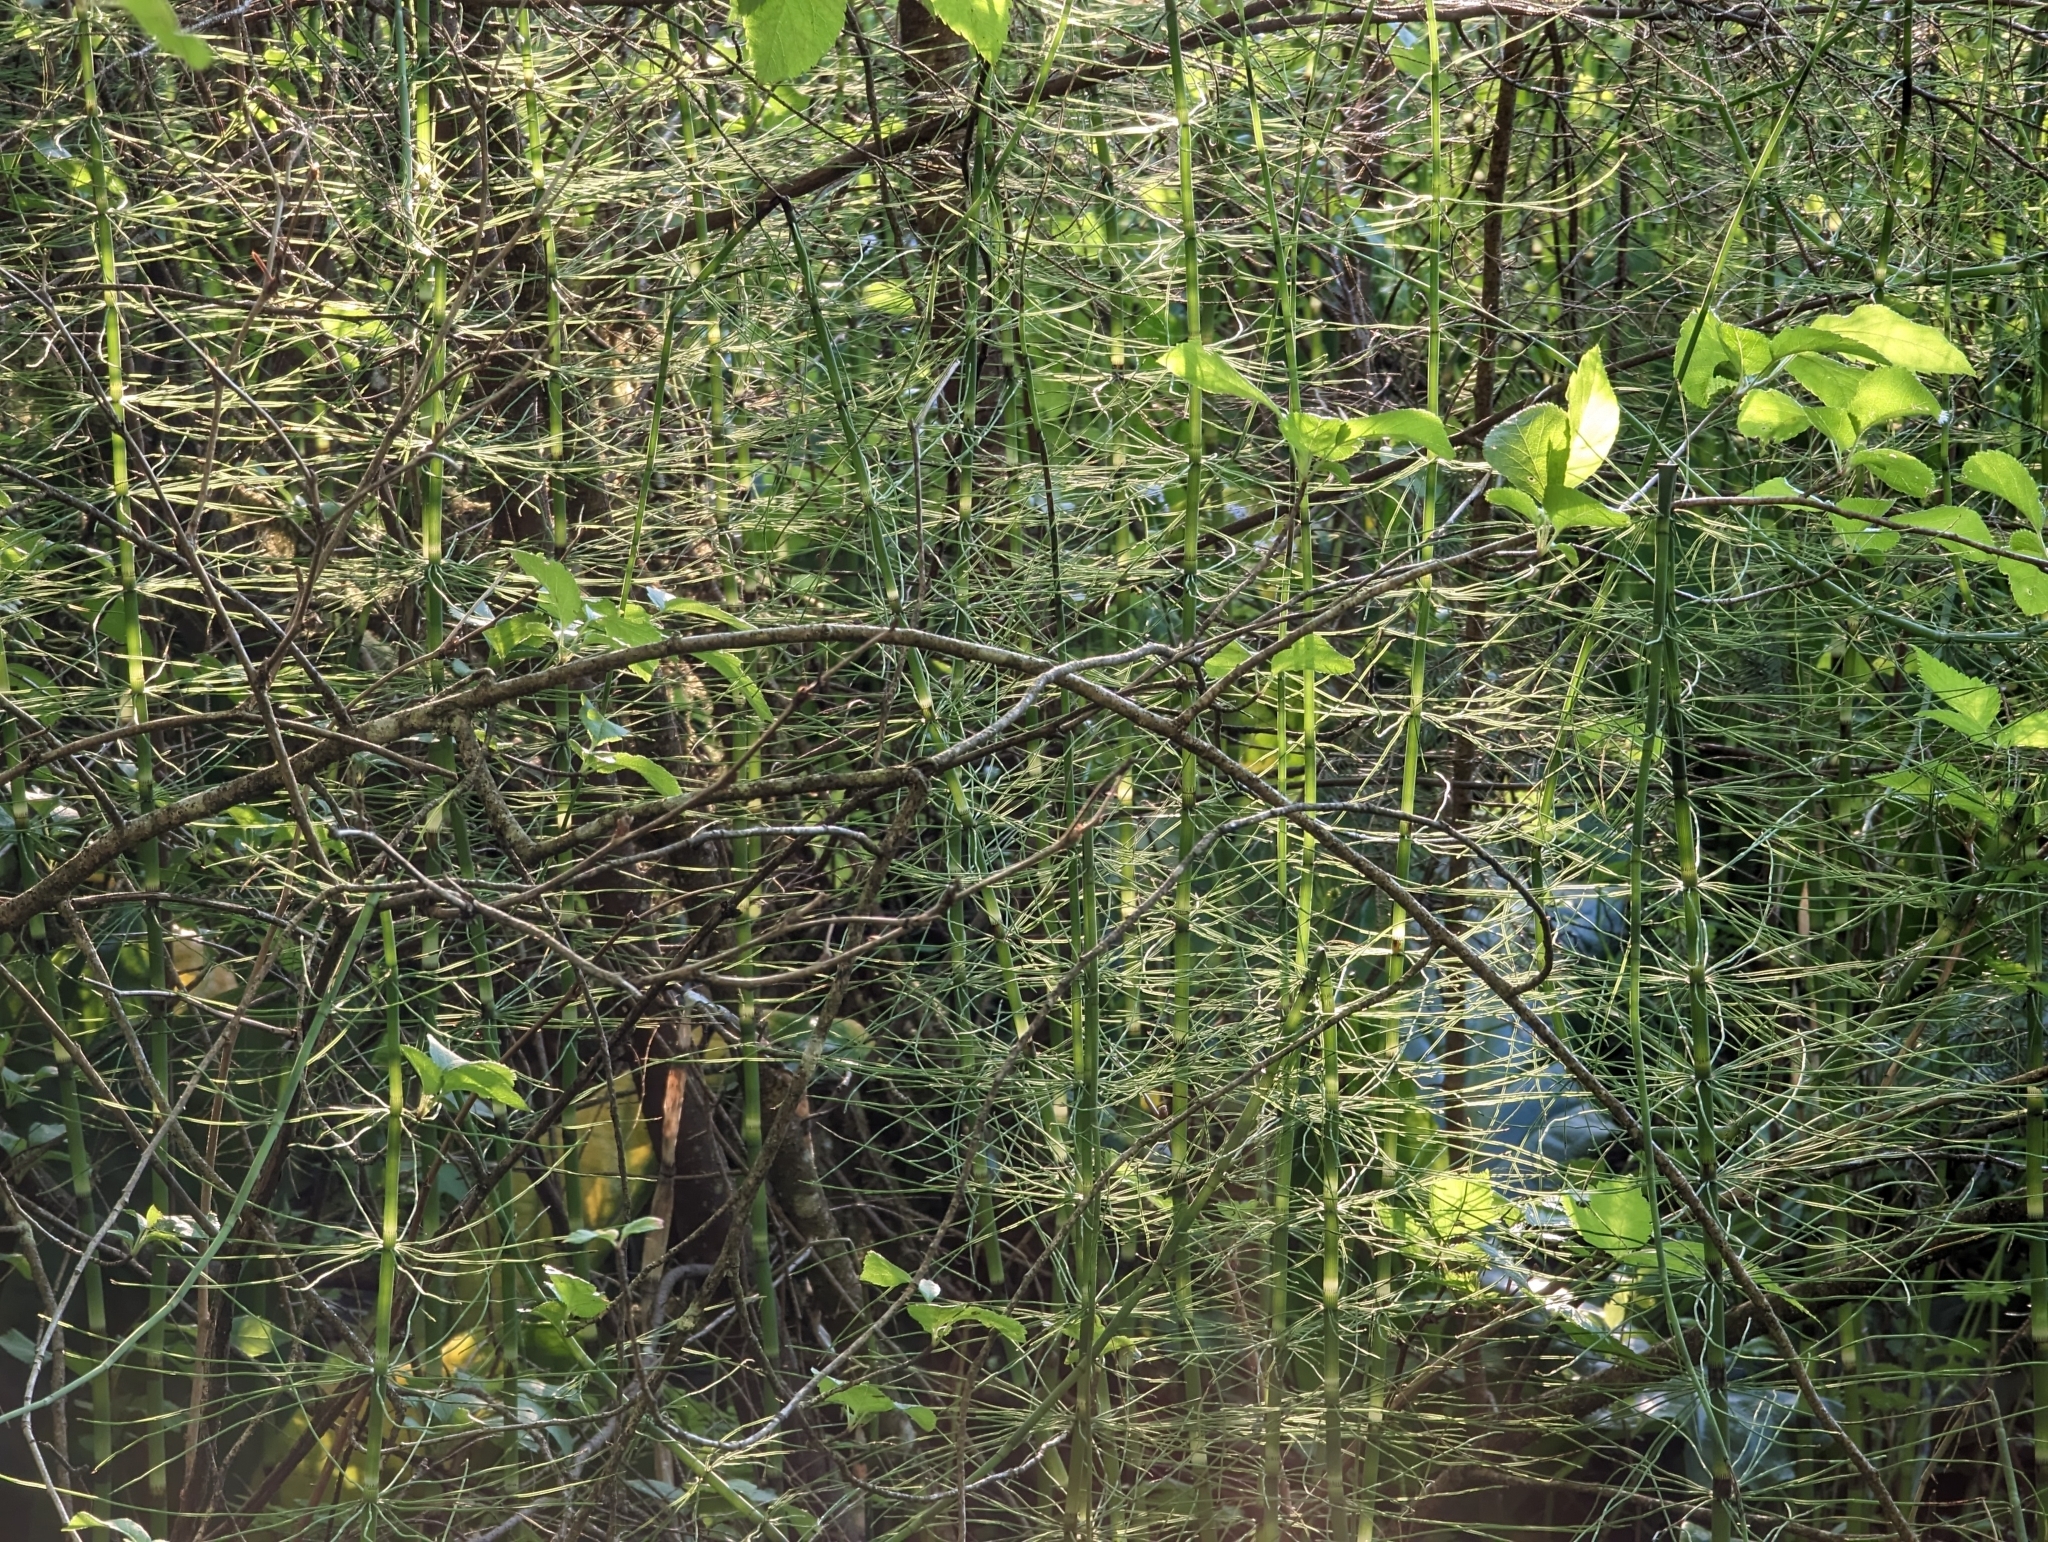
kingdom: Plantae
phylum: Tracheophyta
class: Polypodiopsida
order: Equisetales
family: Equisetaceae
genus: Equisetum
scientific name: Equisetum fluviatile
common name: Water horsetail
